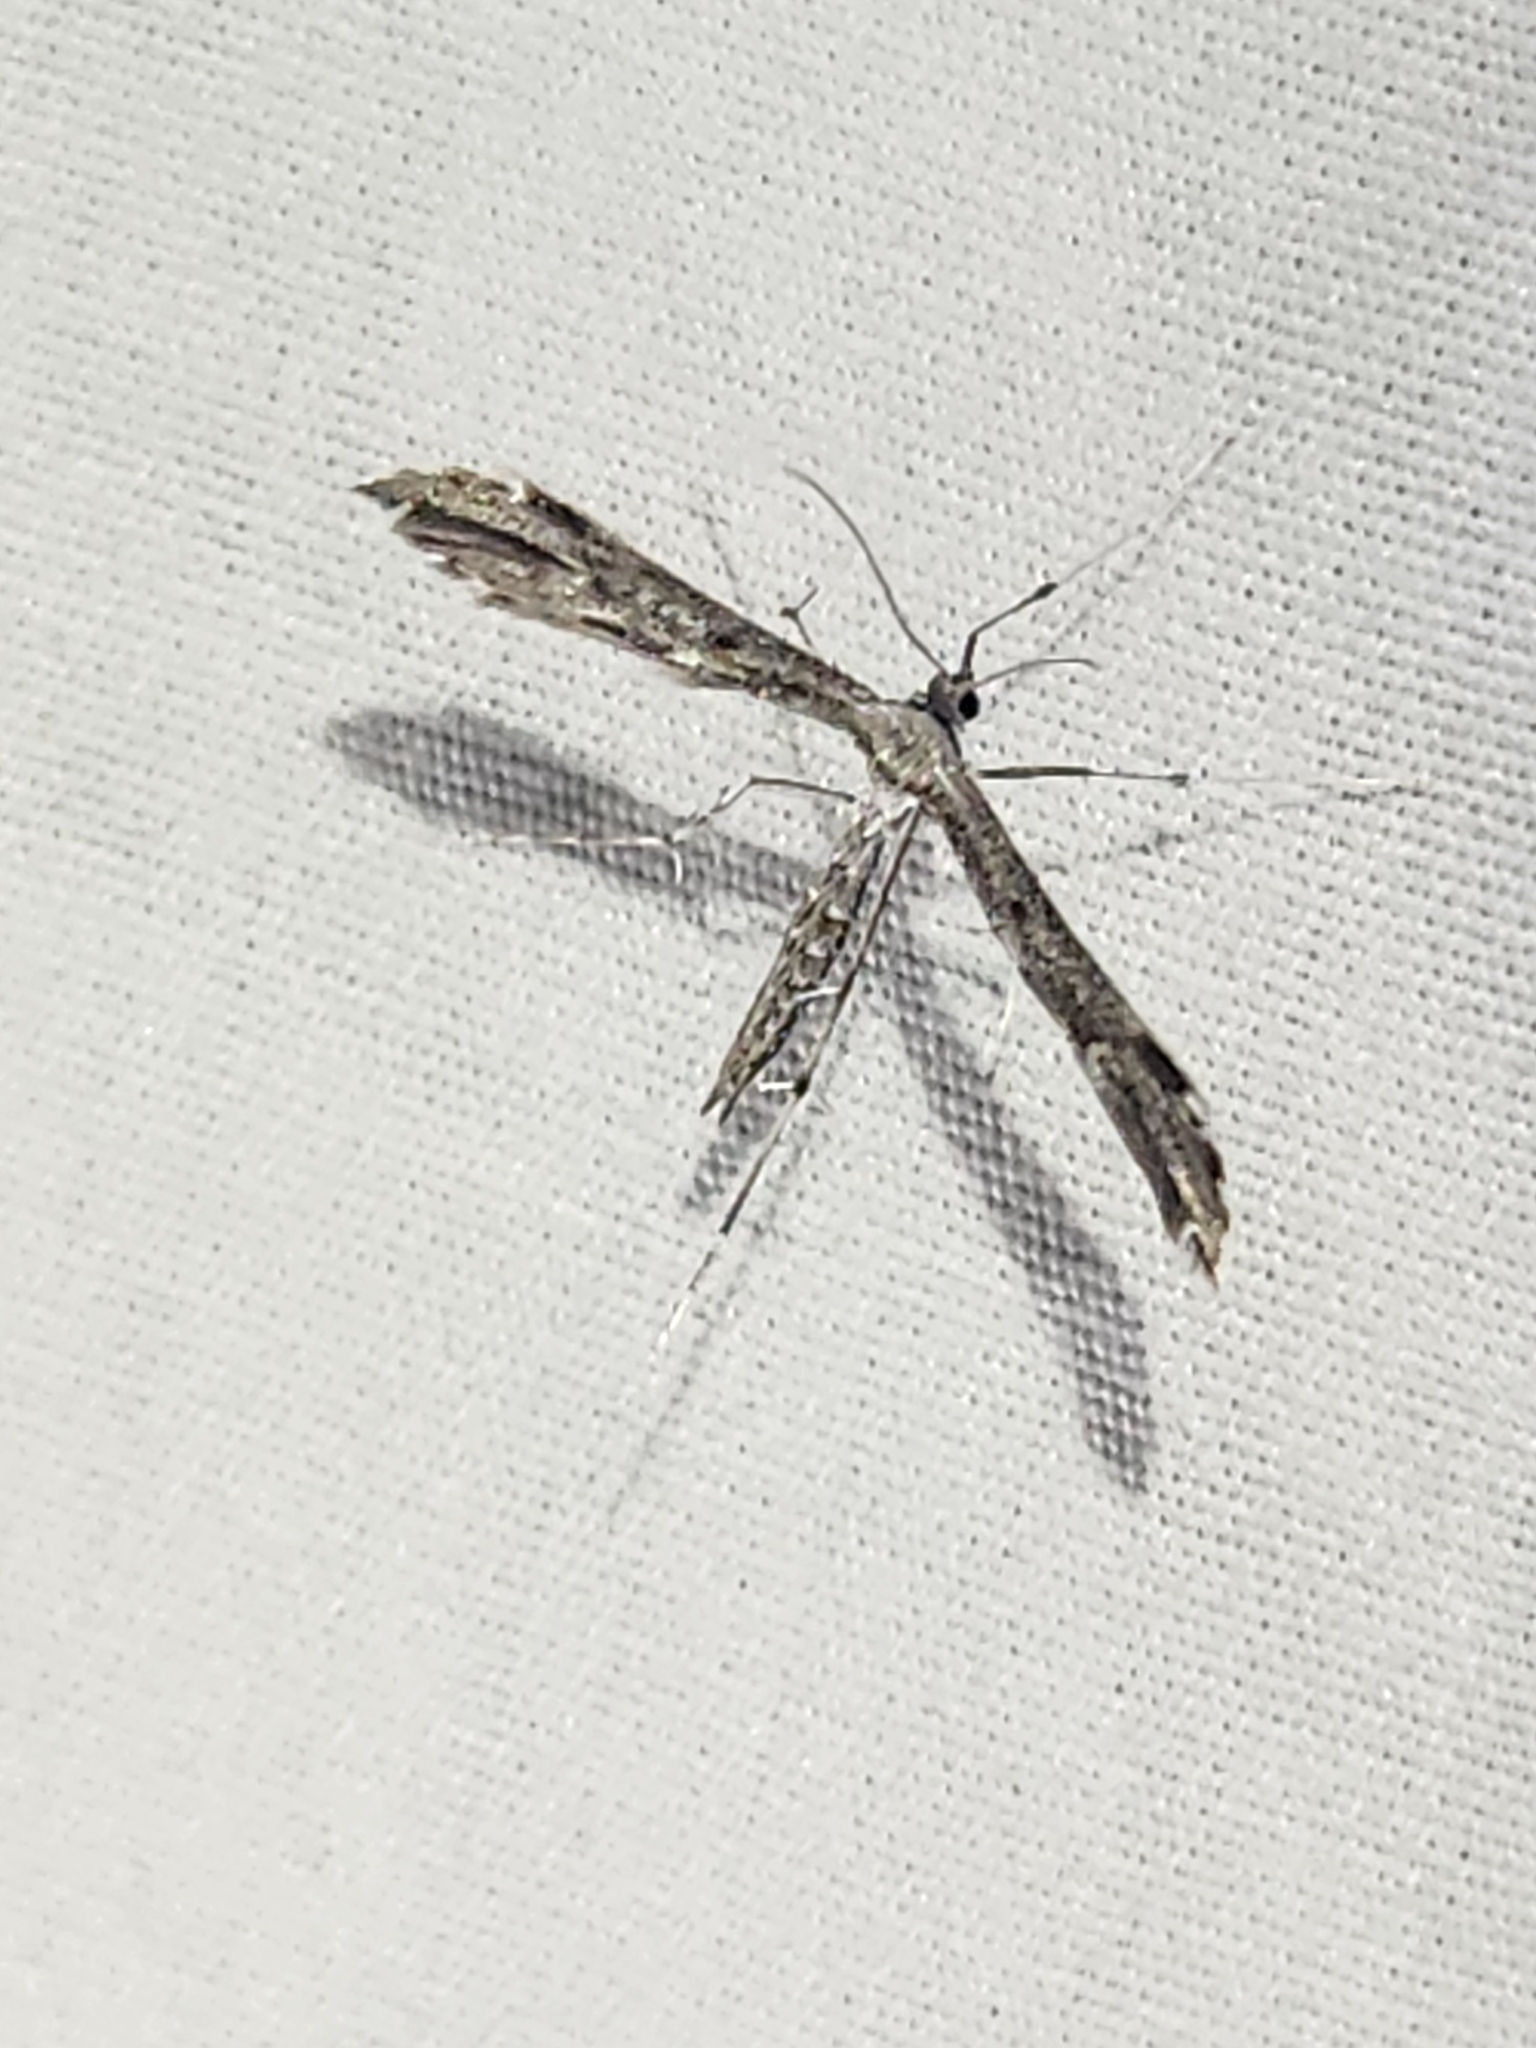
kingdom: Animalia
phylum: Arthropoda
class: Insecta
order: Lepidoptera
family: Pterophoridae
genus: Hellinsia
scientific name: Hellinsia inquinatus
